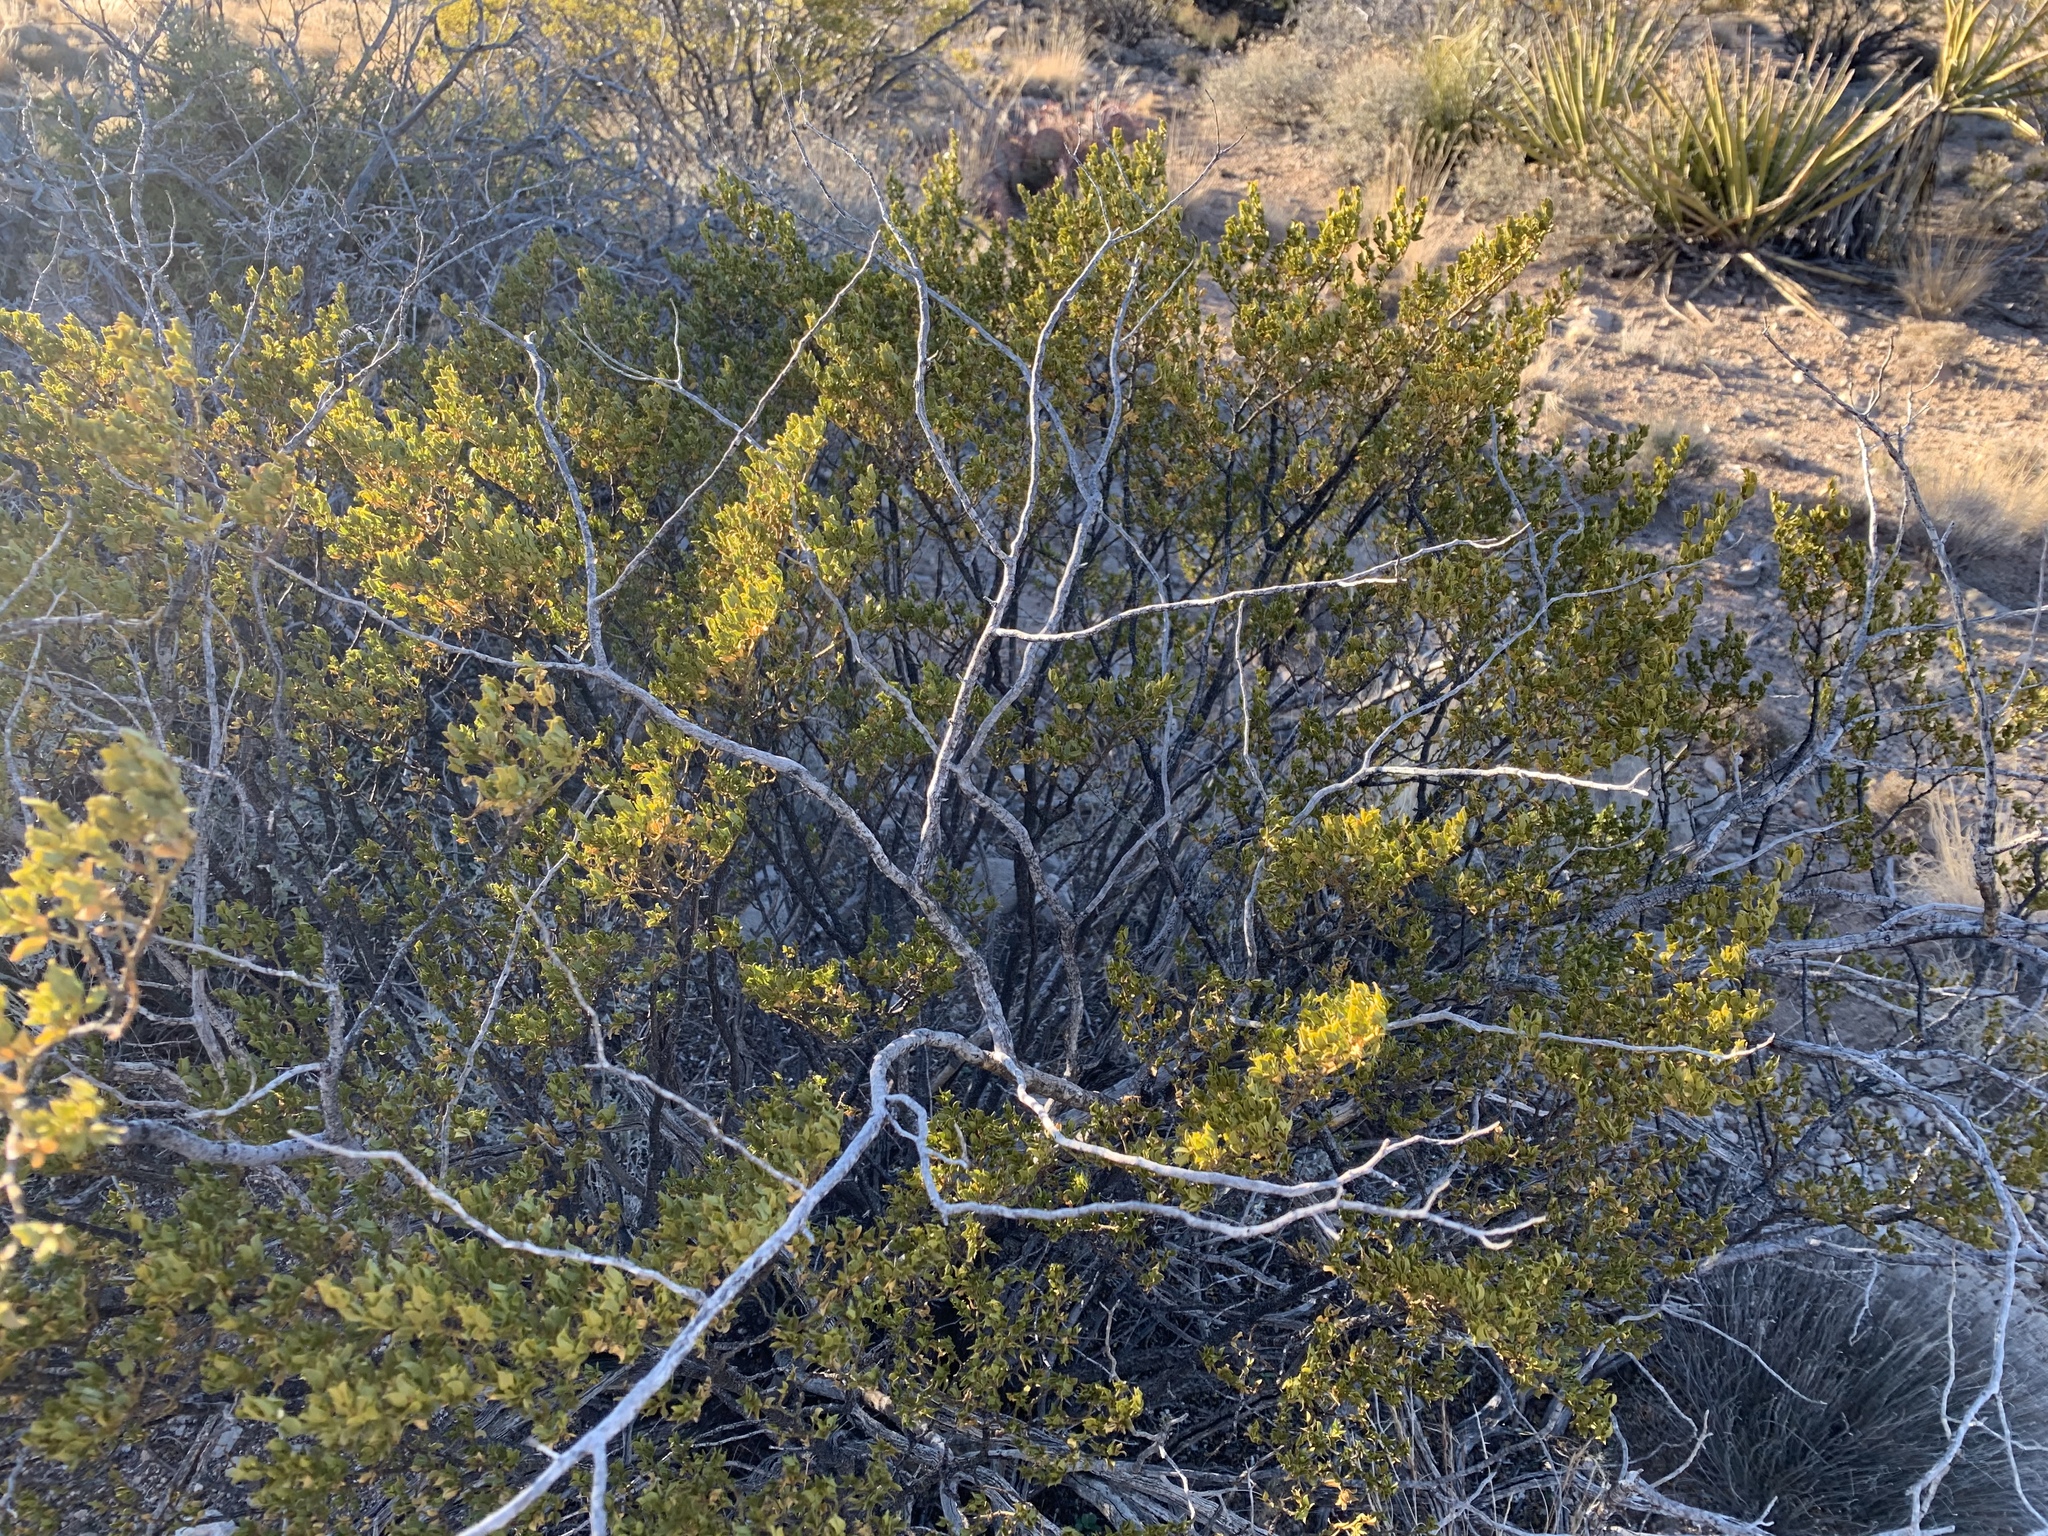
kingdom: Plantae
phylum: Tracheophyta
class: Magnoliopsida
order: Zygophyllales
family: Zygophyllaceae
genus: Larrea
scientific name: Larrea tridentata
